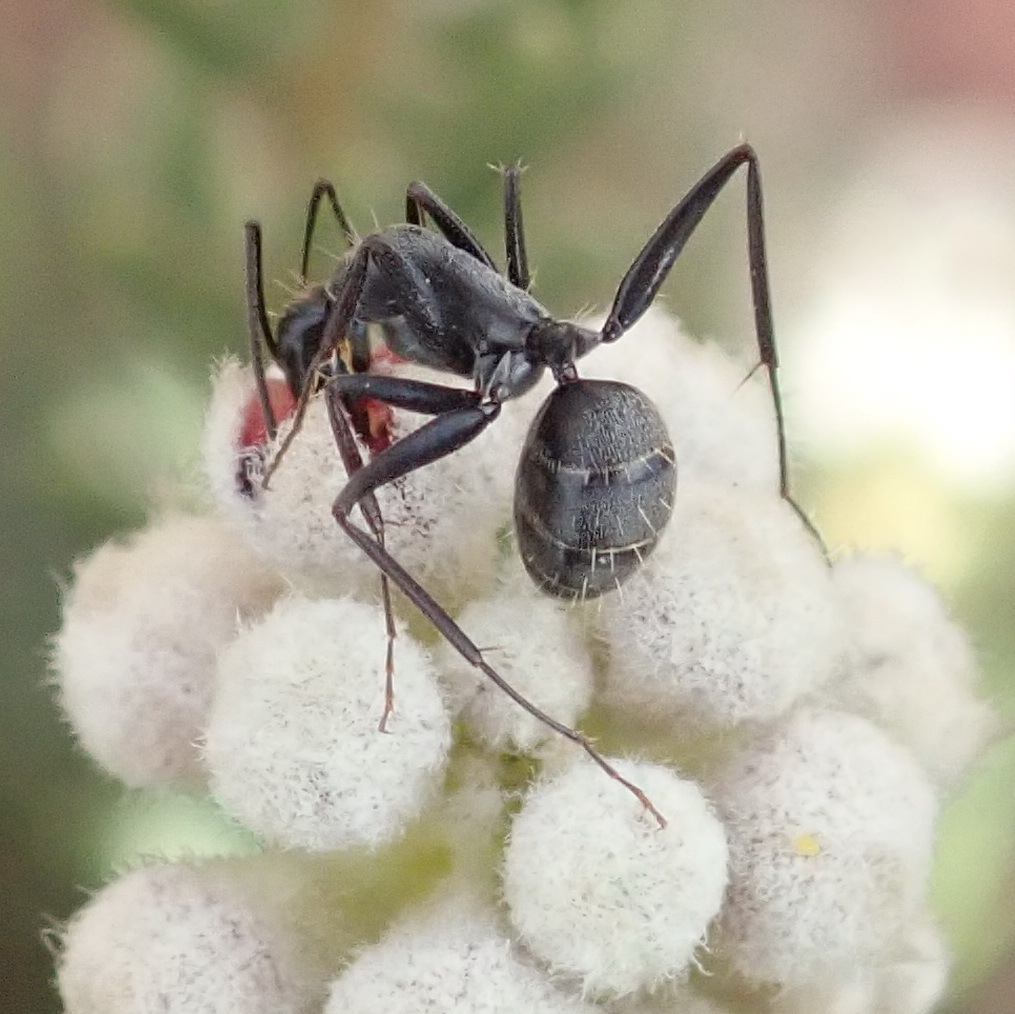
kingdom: Animalia
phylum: Arthropoda
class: Insecta
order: Hymenoptera
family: Formicidae
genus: Camponotus
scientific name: Camponotus eugeniae
